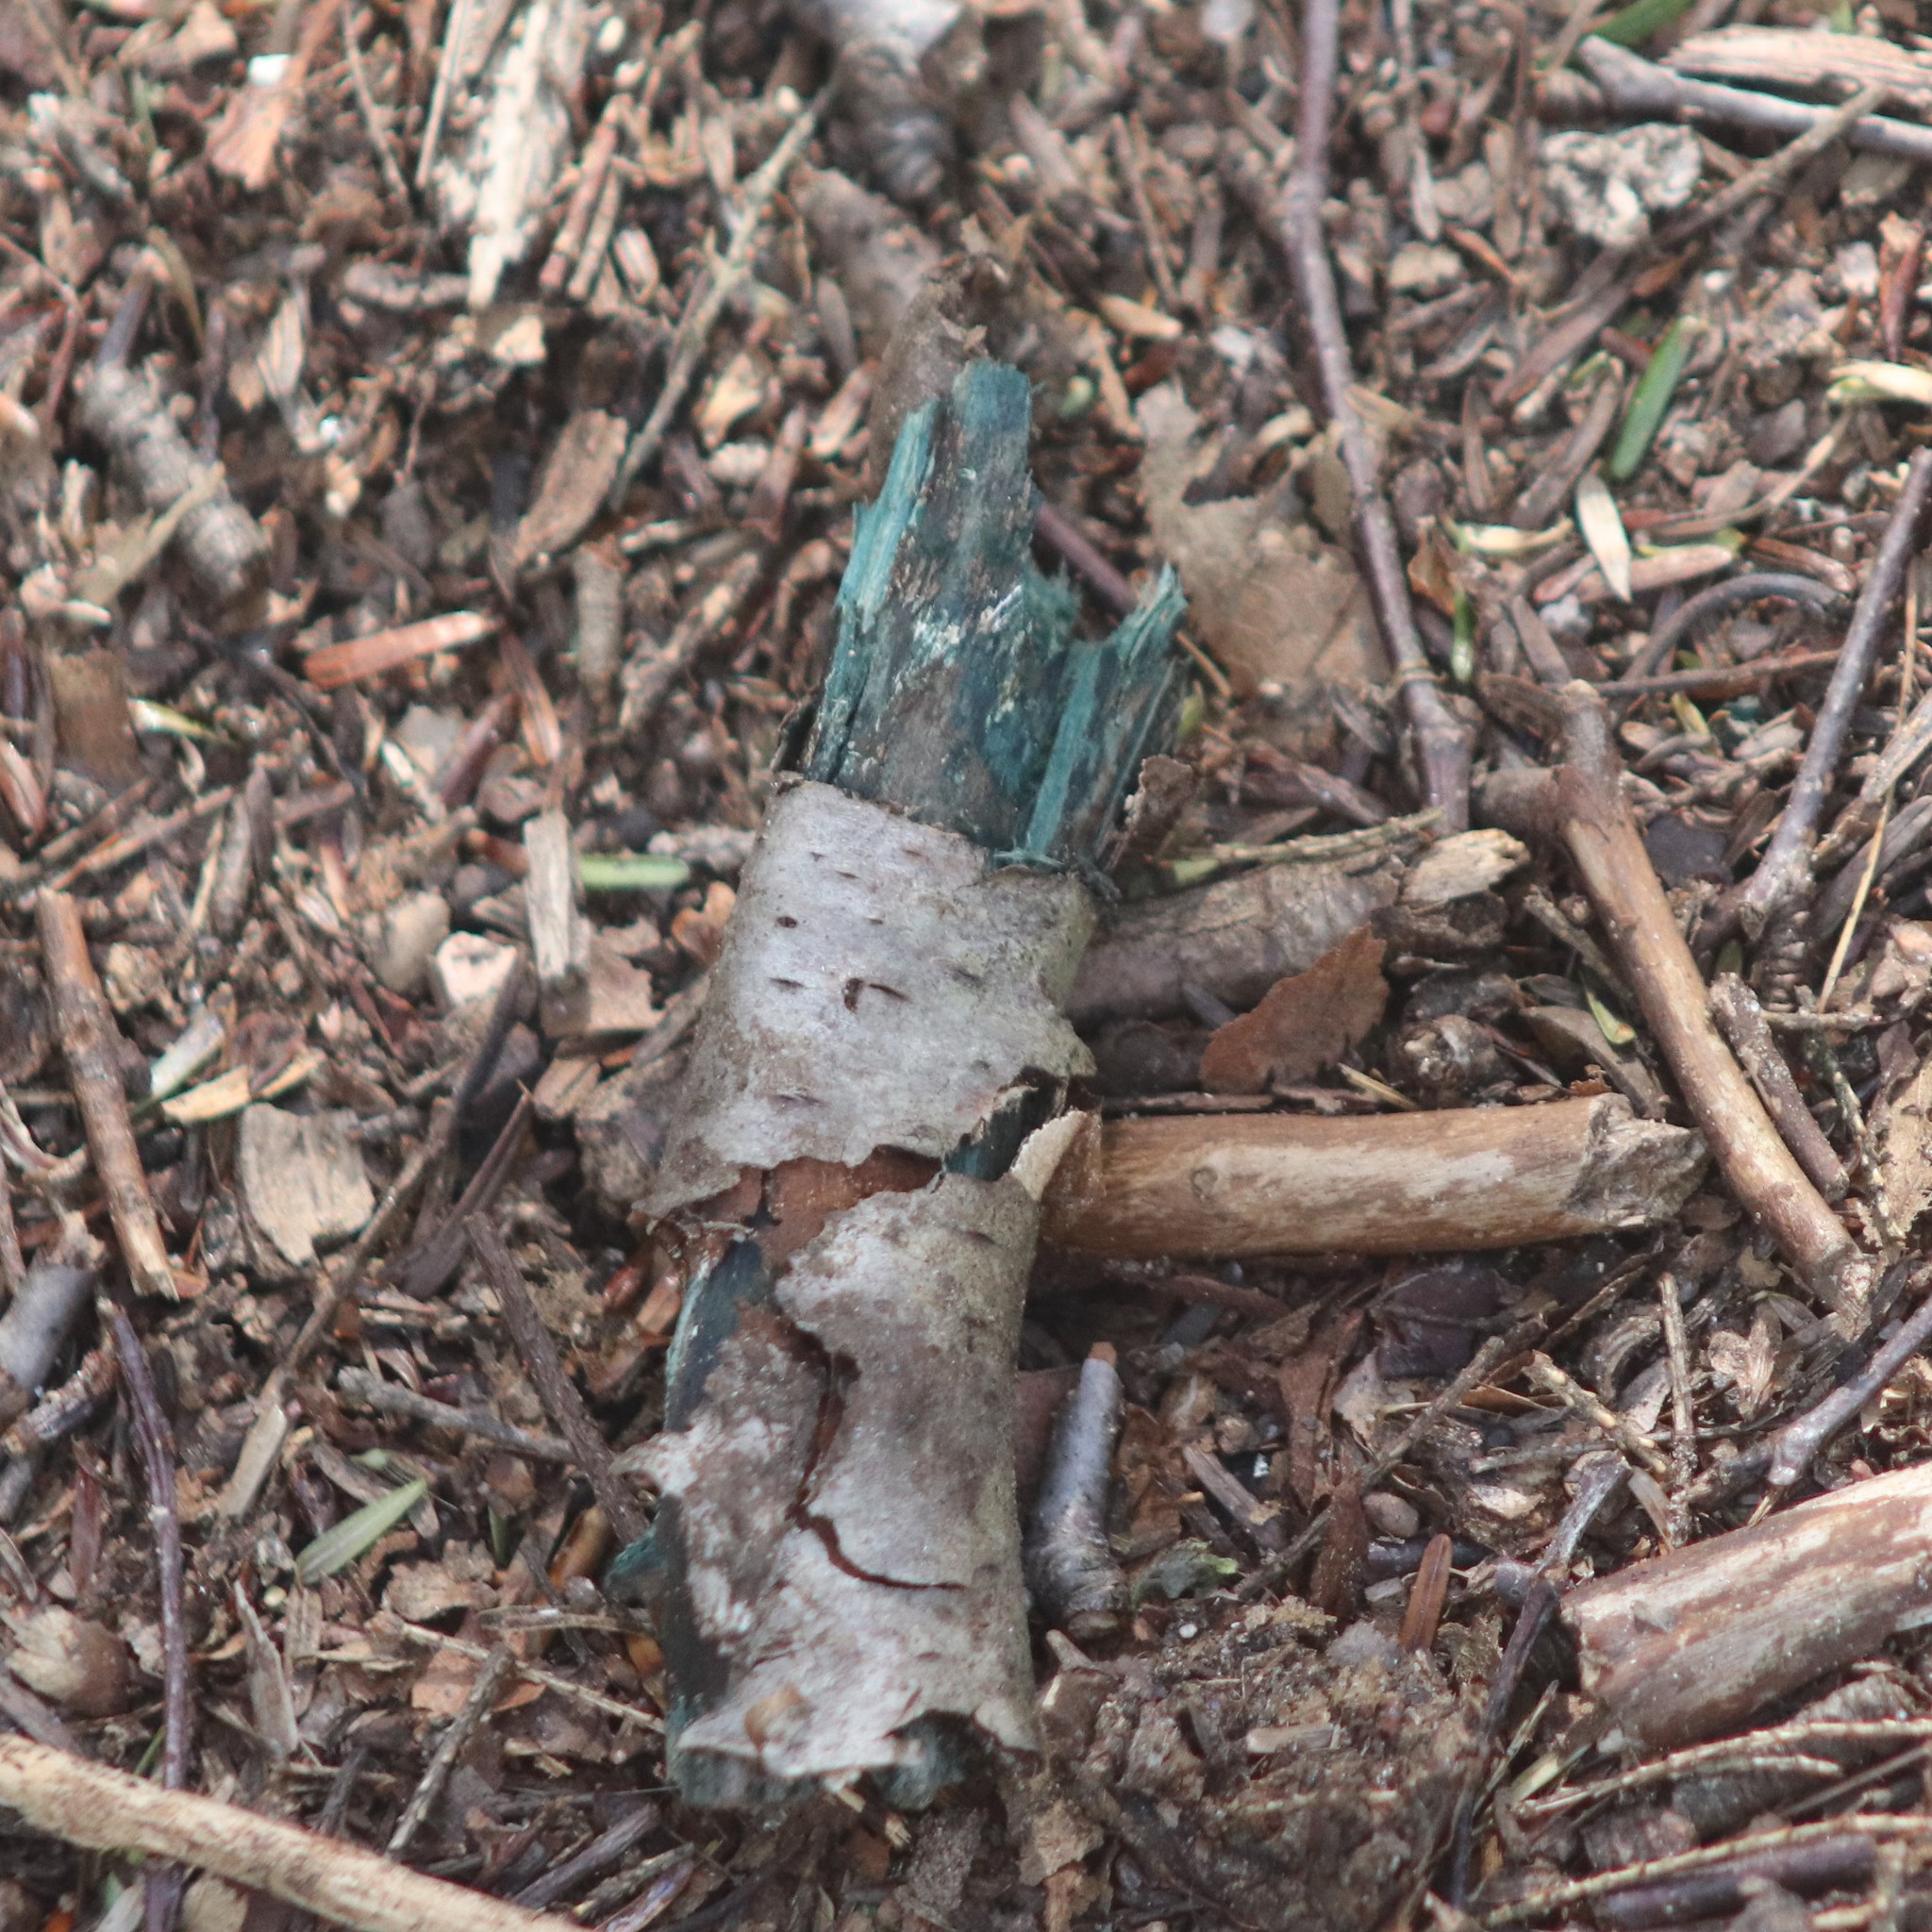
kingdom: Fungi
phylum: Ascomycota
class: Leotiomycetes
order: Helotiales
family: Chlorociboriaceae
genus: Chlorociboria
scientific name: Chlorociboria
